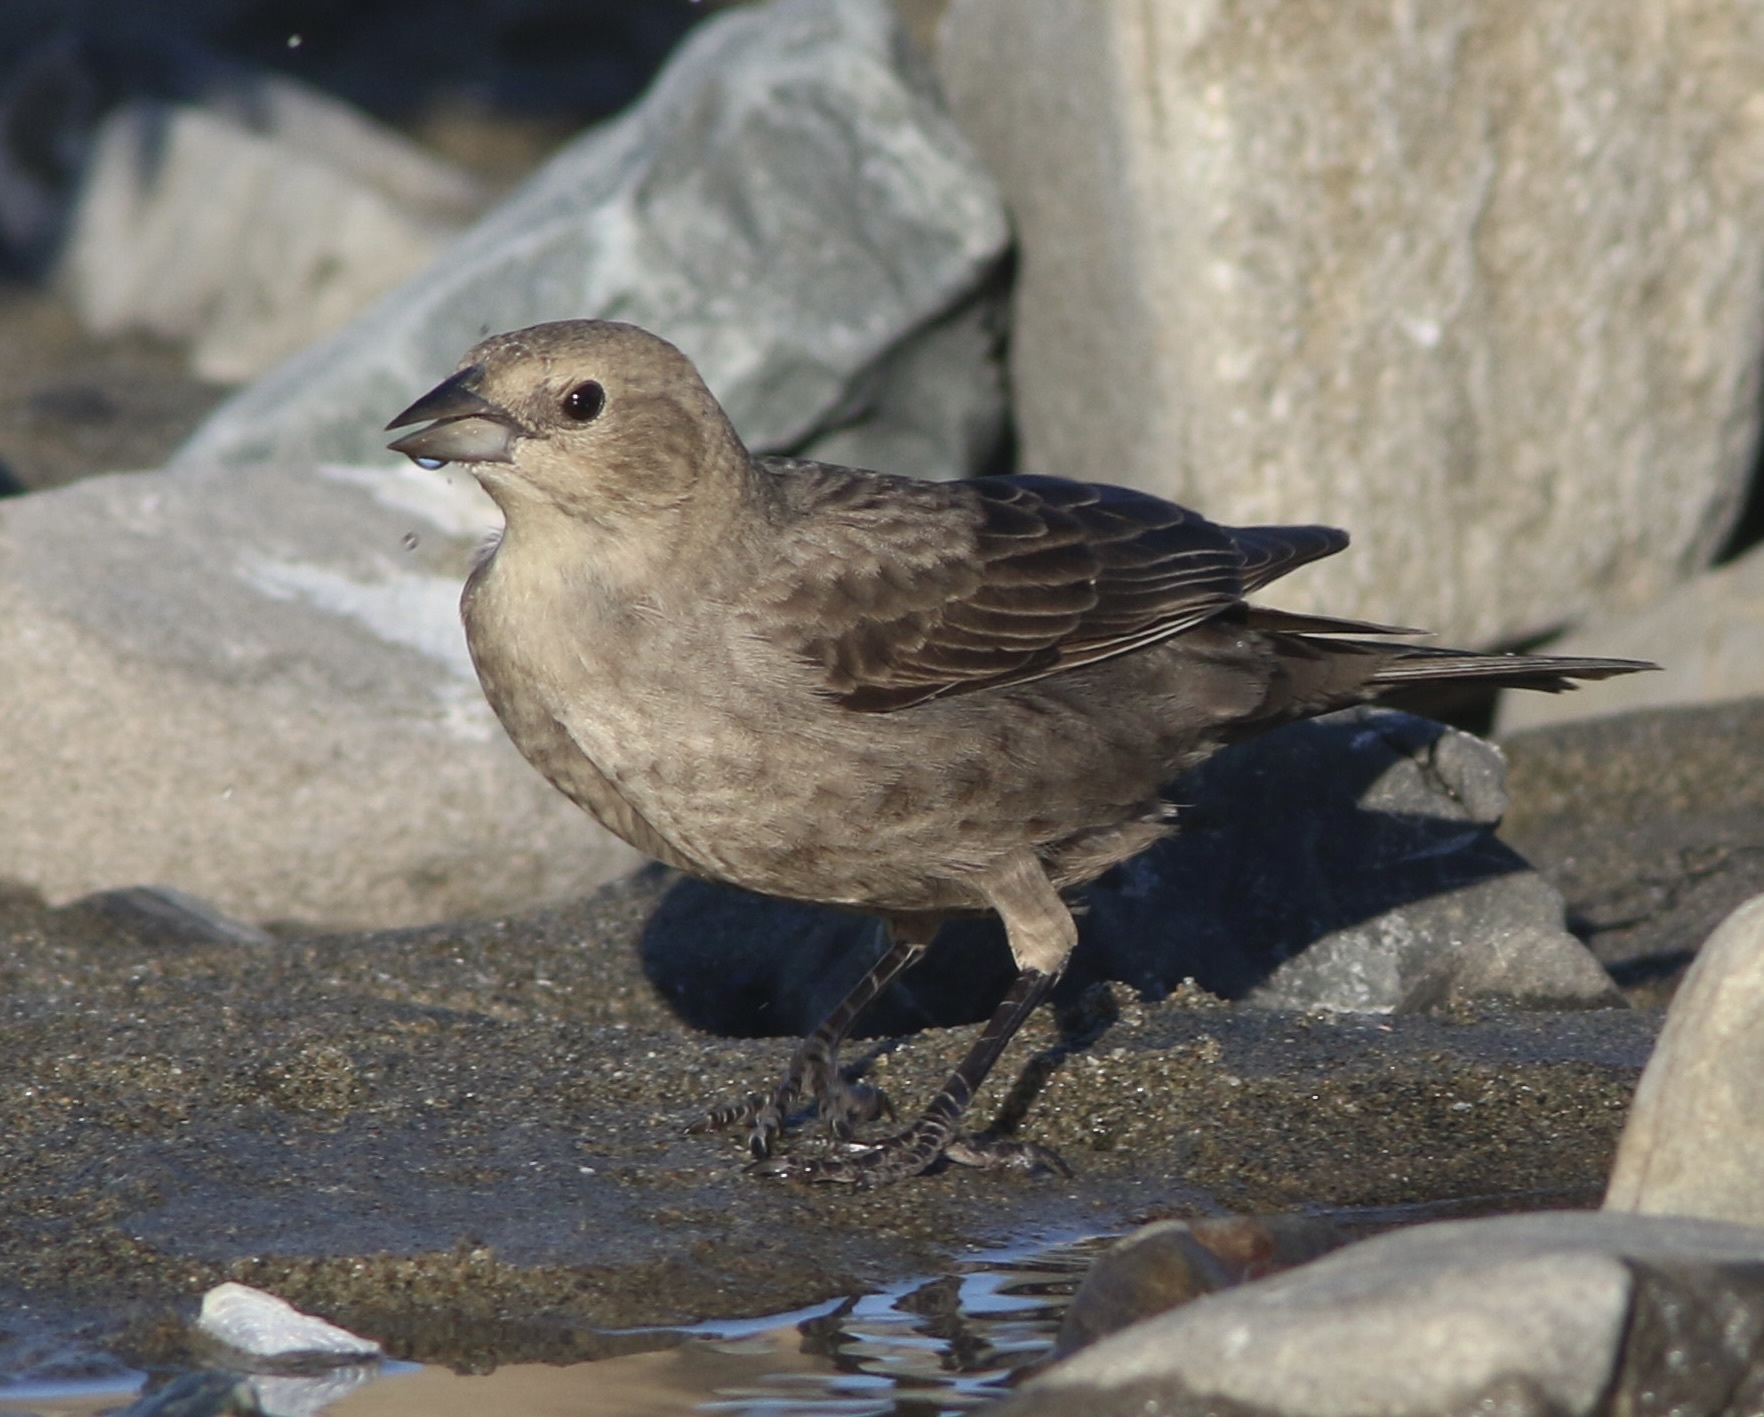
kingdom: Animalia
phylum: Chordata
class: Aves
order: Passeriformes
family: Icteridae
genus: Molothrus
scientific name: Molothrus ater
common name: Brown-headed cowbird
